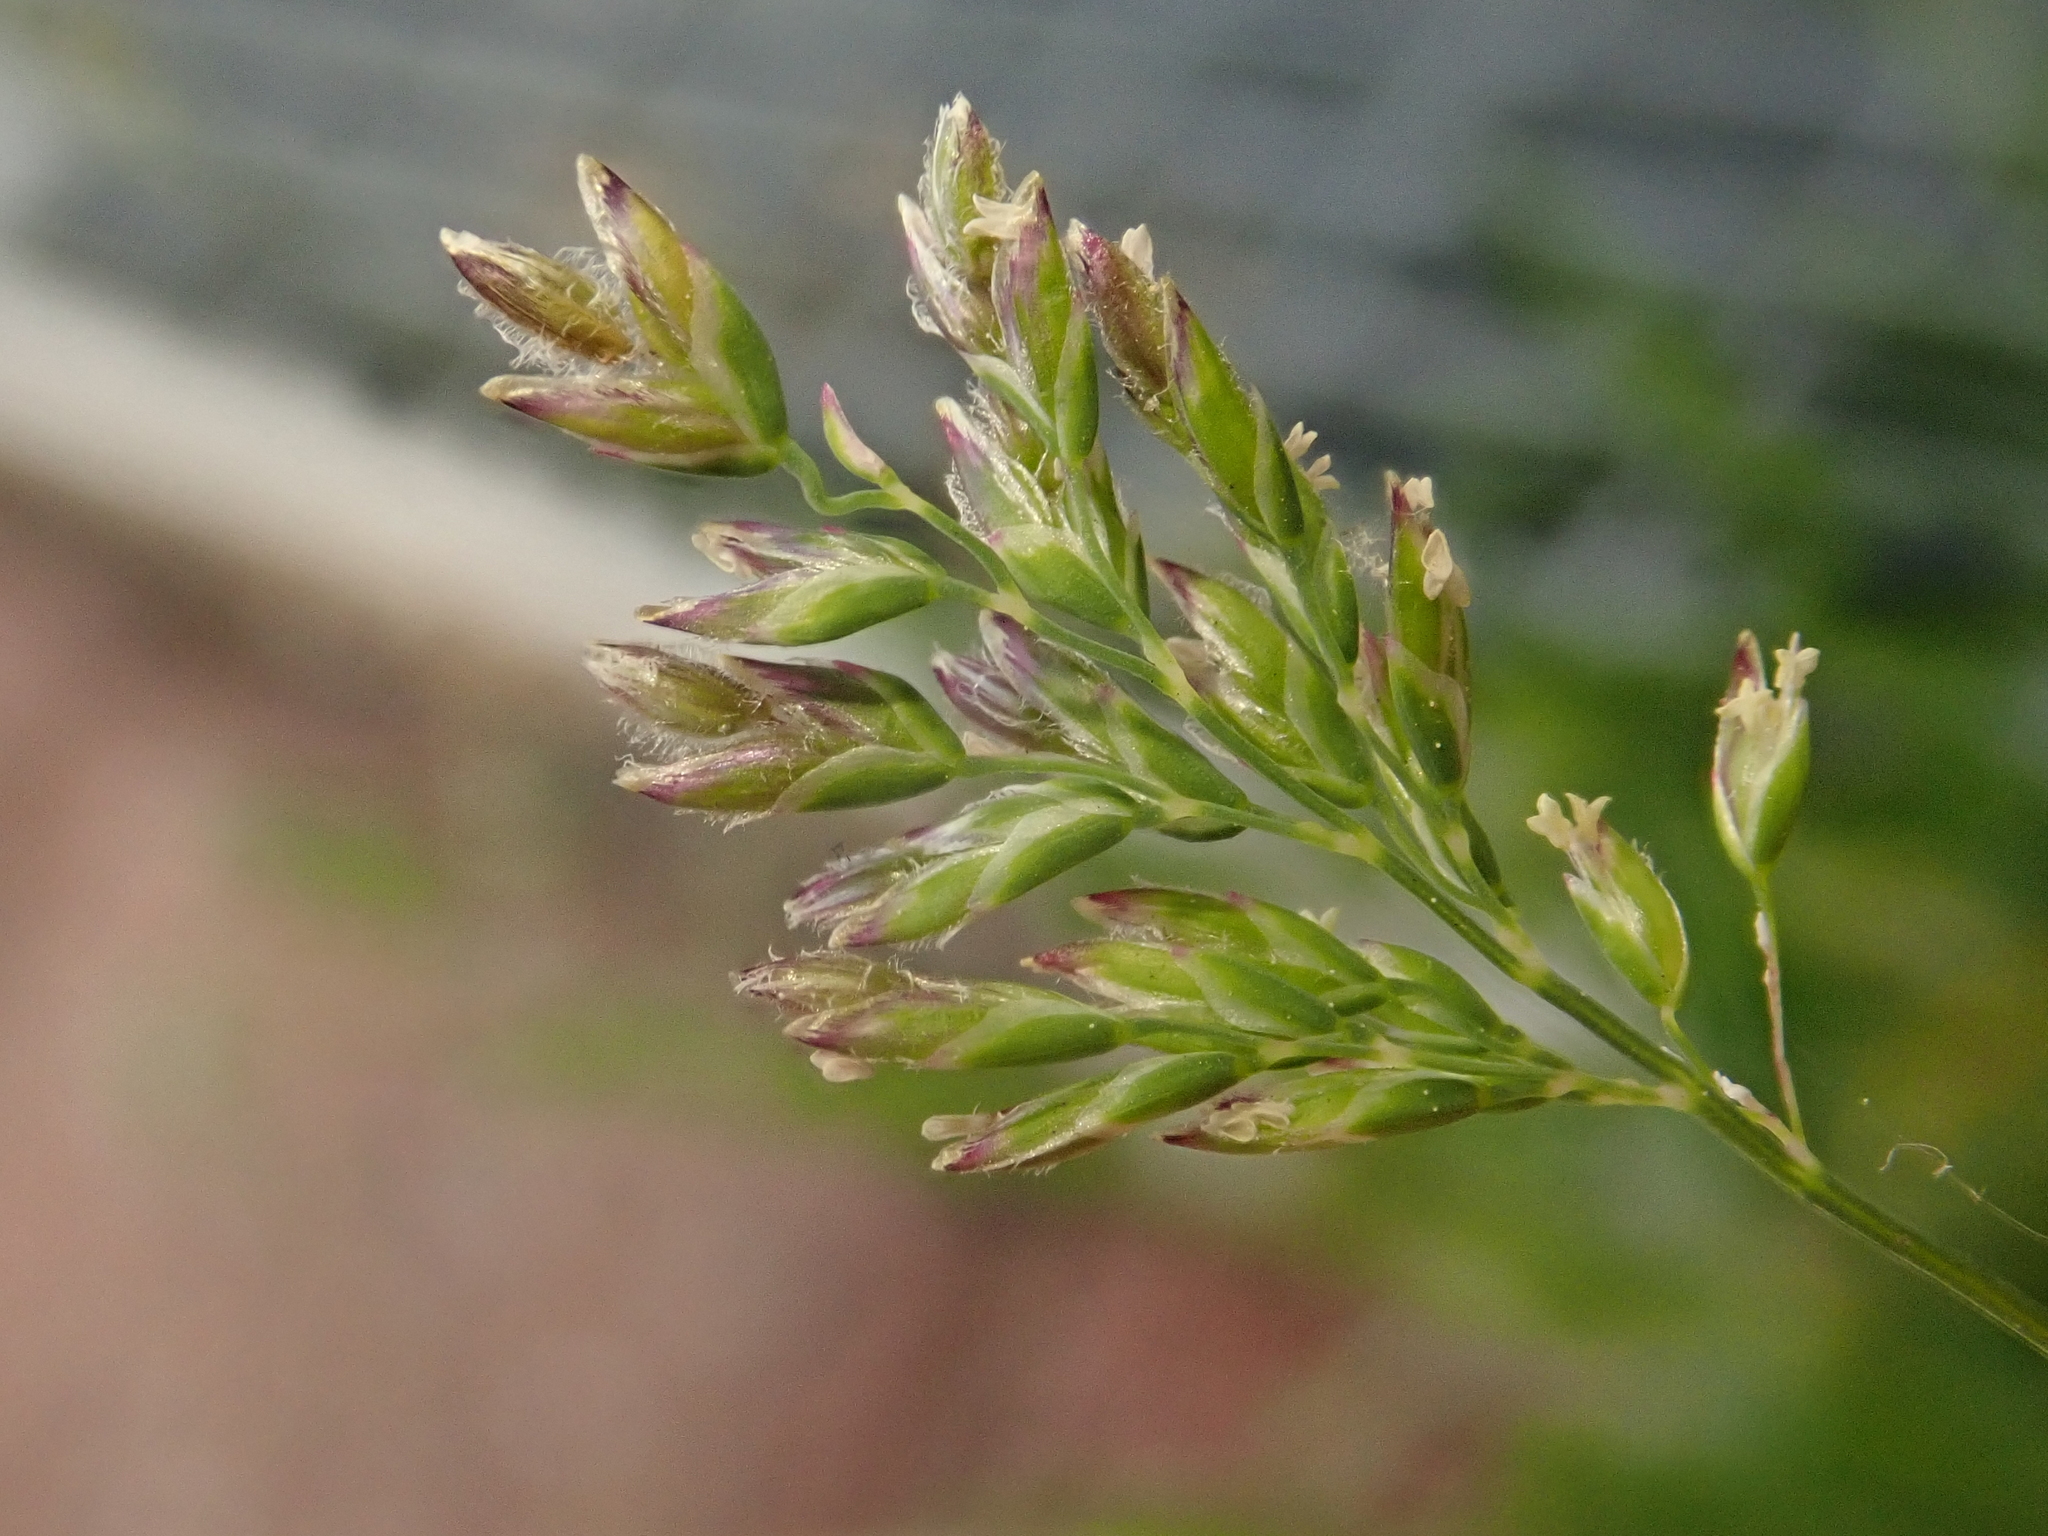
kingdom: Plantae
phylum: Tracheophyta
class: Liliopsida
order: Poales
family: Poaceae
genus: Poa
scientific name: Poa annua
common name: Annual bluegrass
